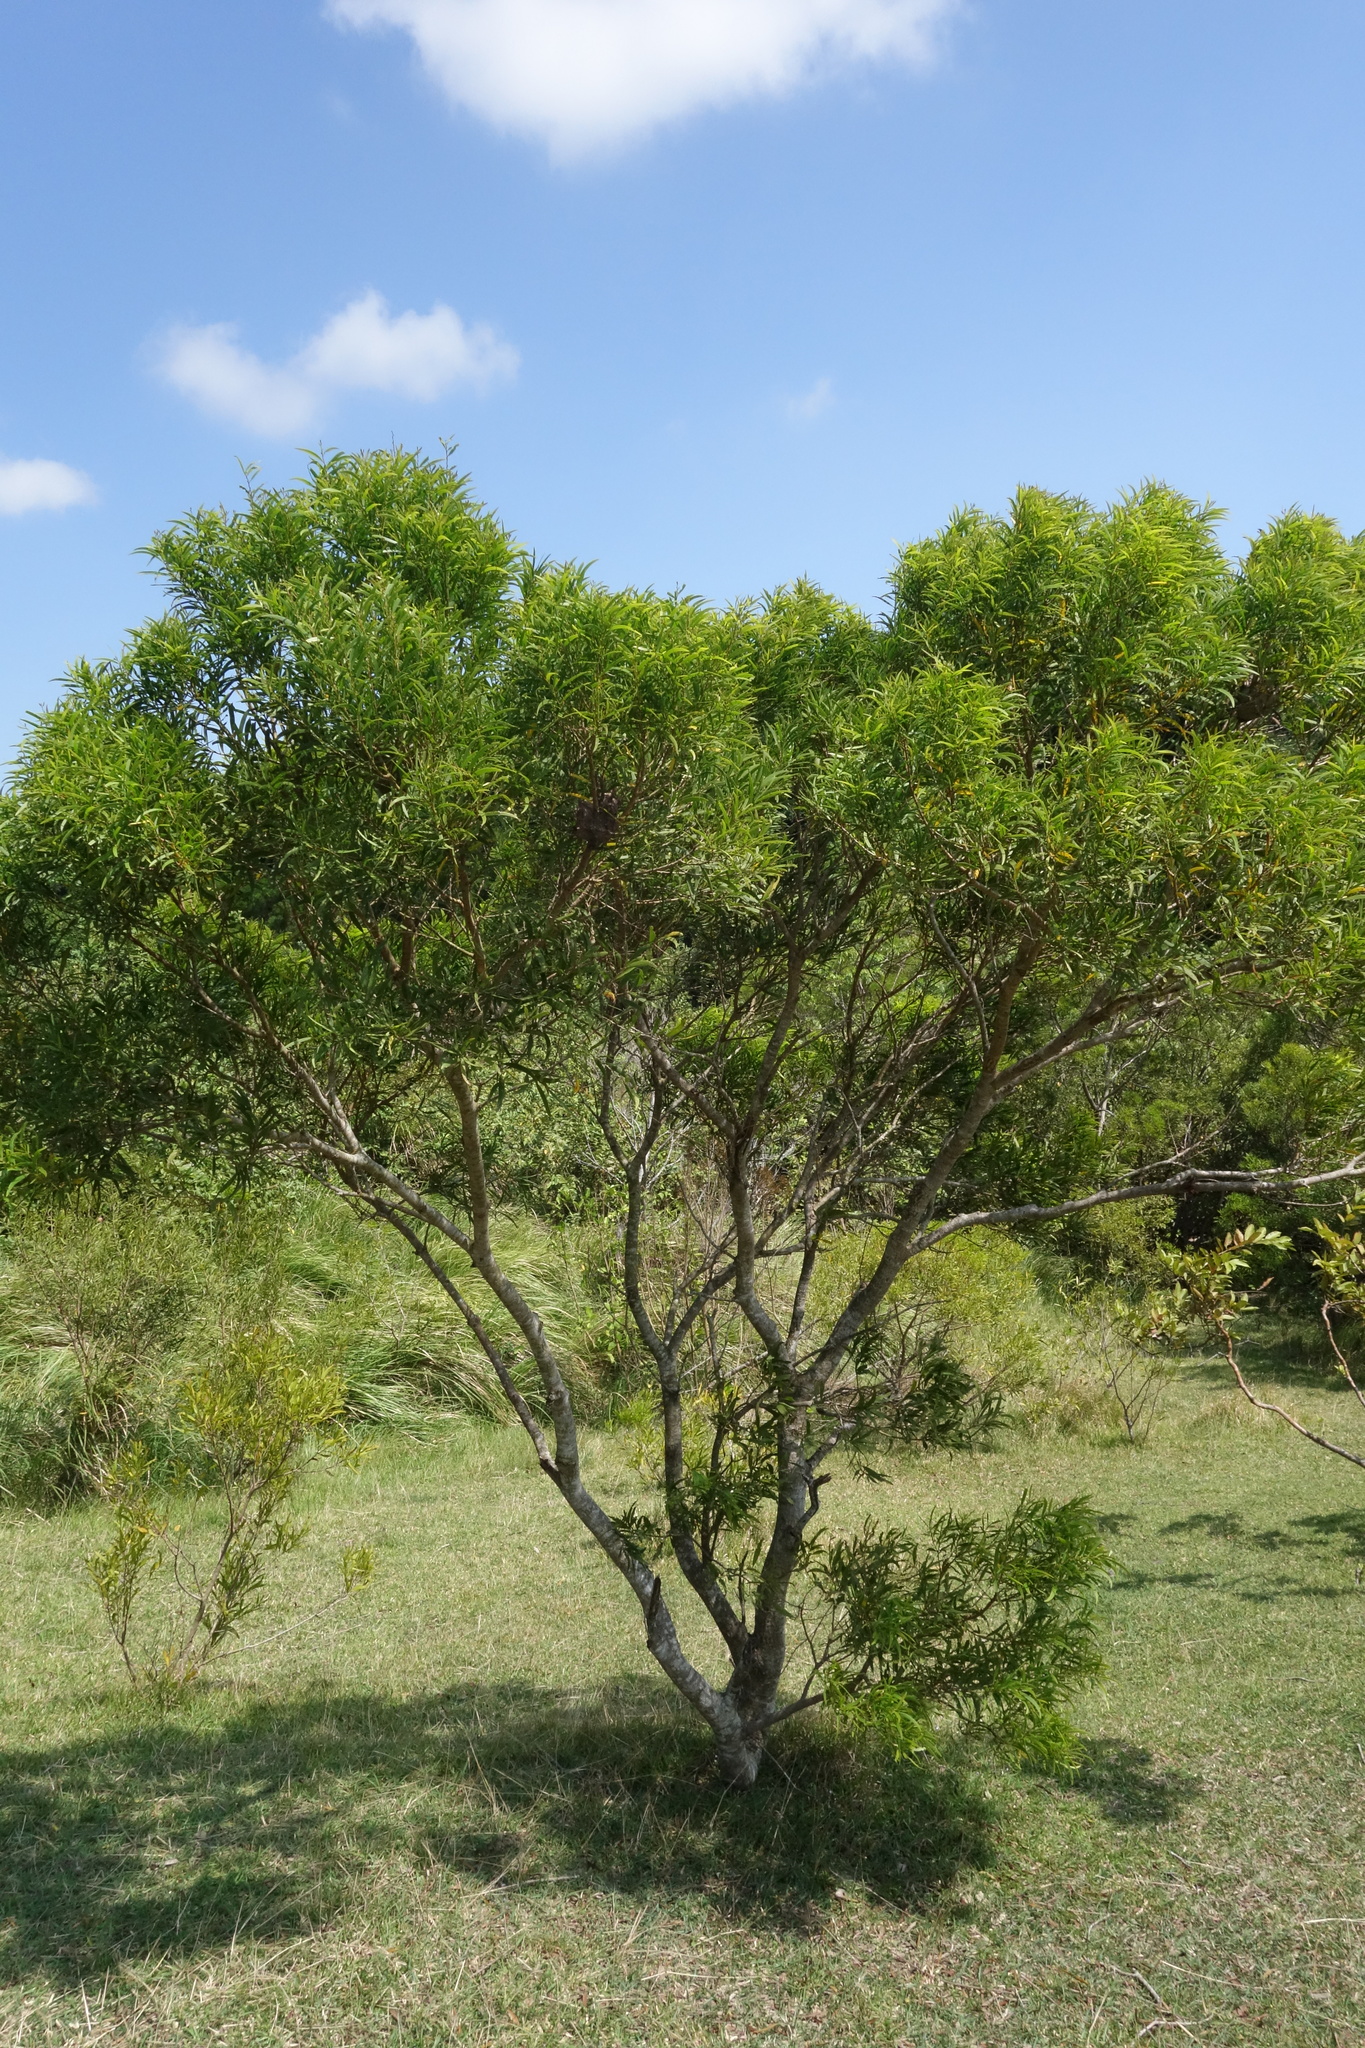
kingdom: Plantae
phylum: Tracheophyta
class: Magnoliopsida
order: Fabales
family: Fabaceae
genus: Acacia
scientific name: Acacia confusa
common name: Formosan koa
